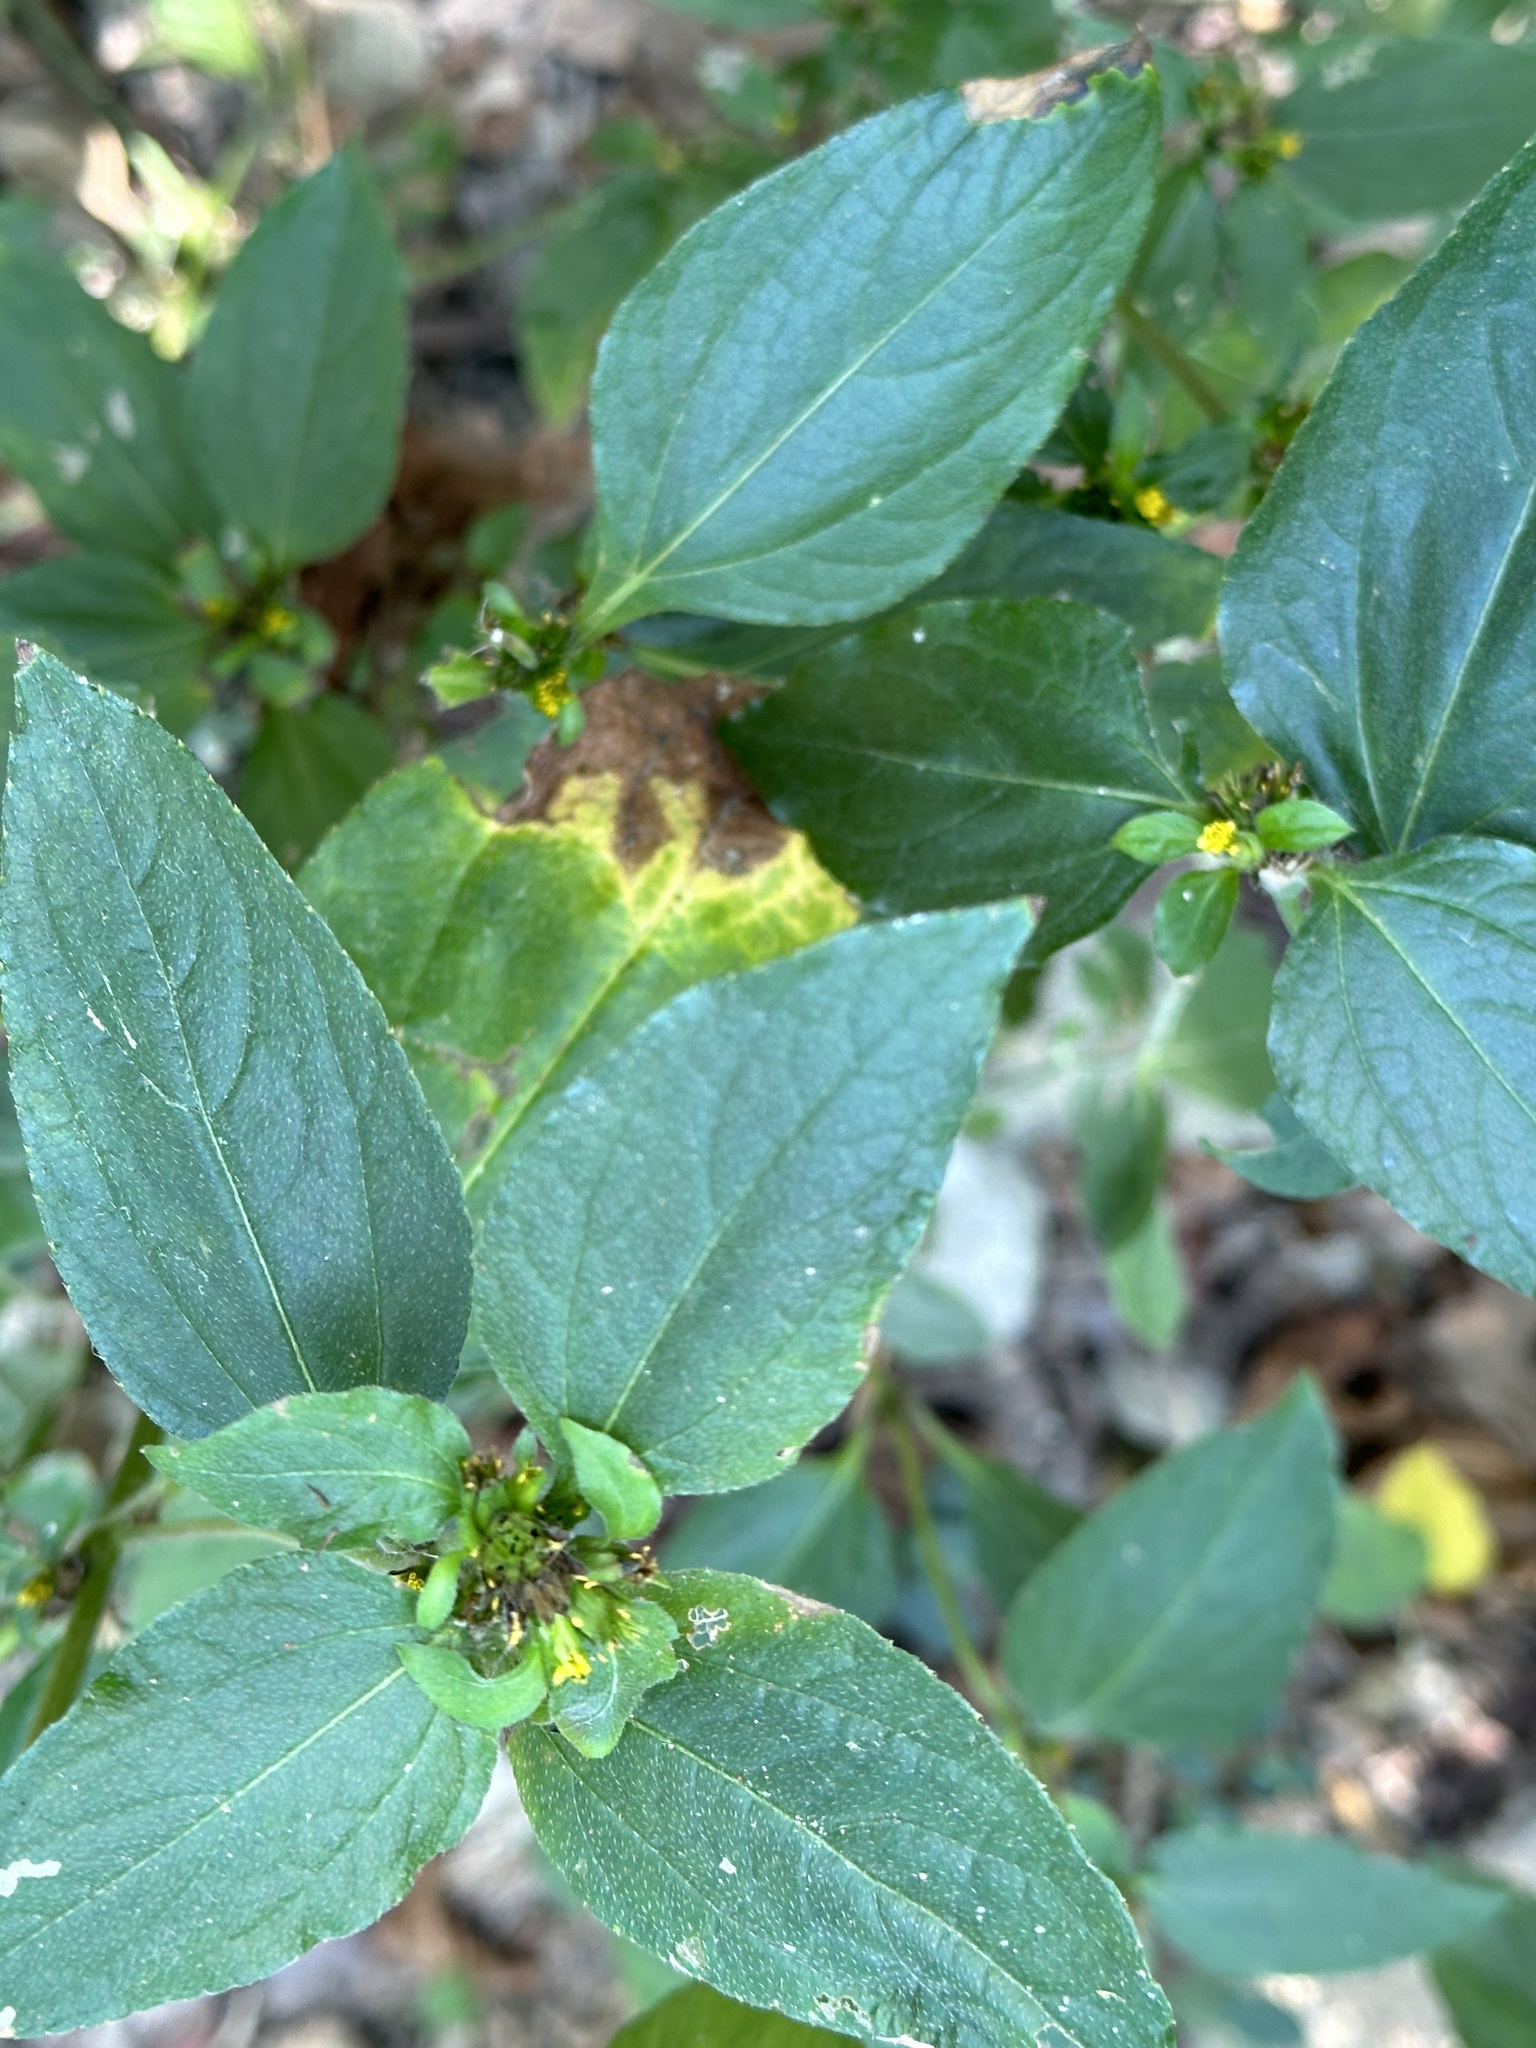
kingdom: Plantae
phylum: Tracheophyta
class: Magnoliopsida
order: Asterales
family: Asteraceae
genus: Synedrella
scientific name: Synedrella nodiflora
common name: Nodeweed
